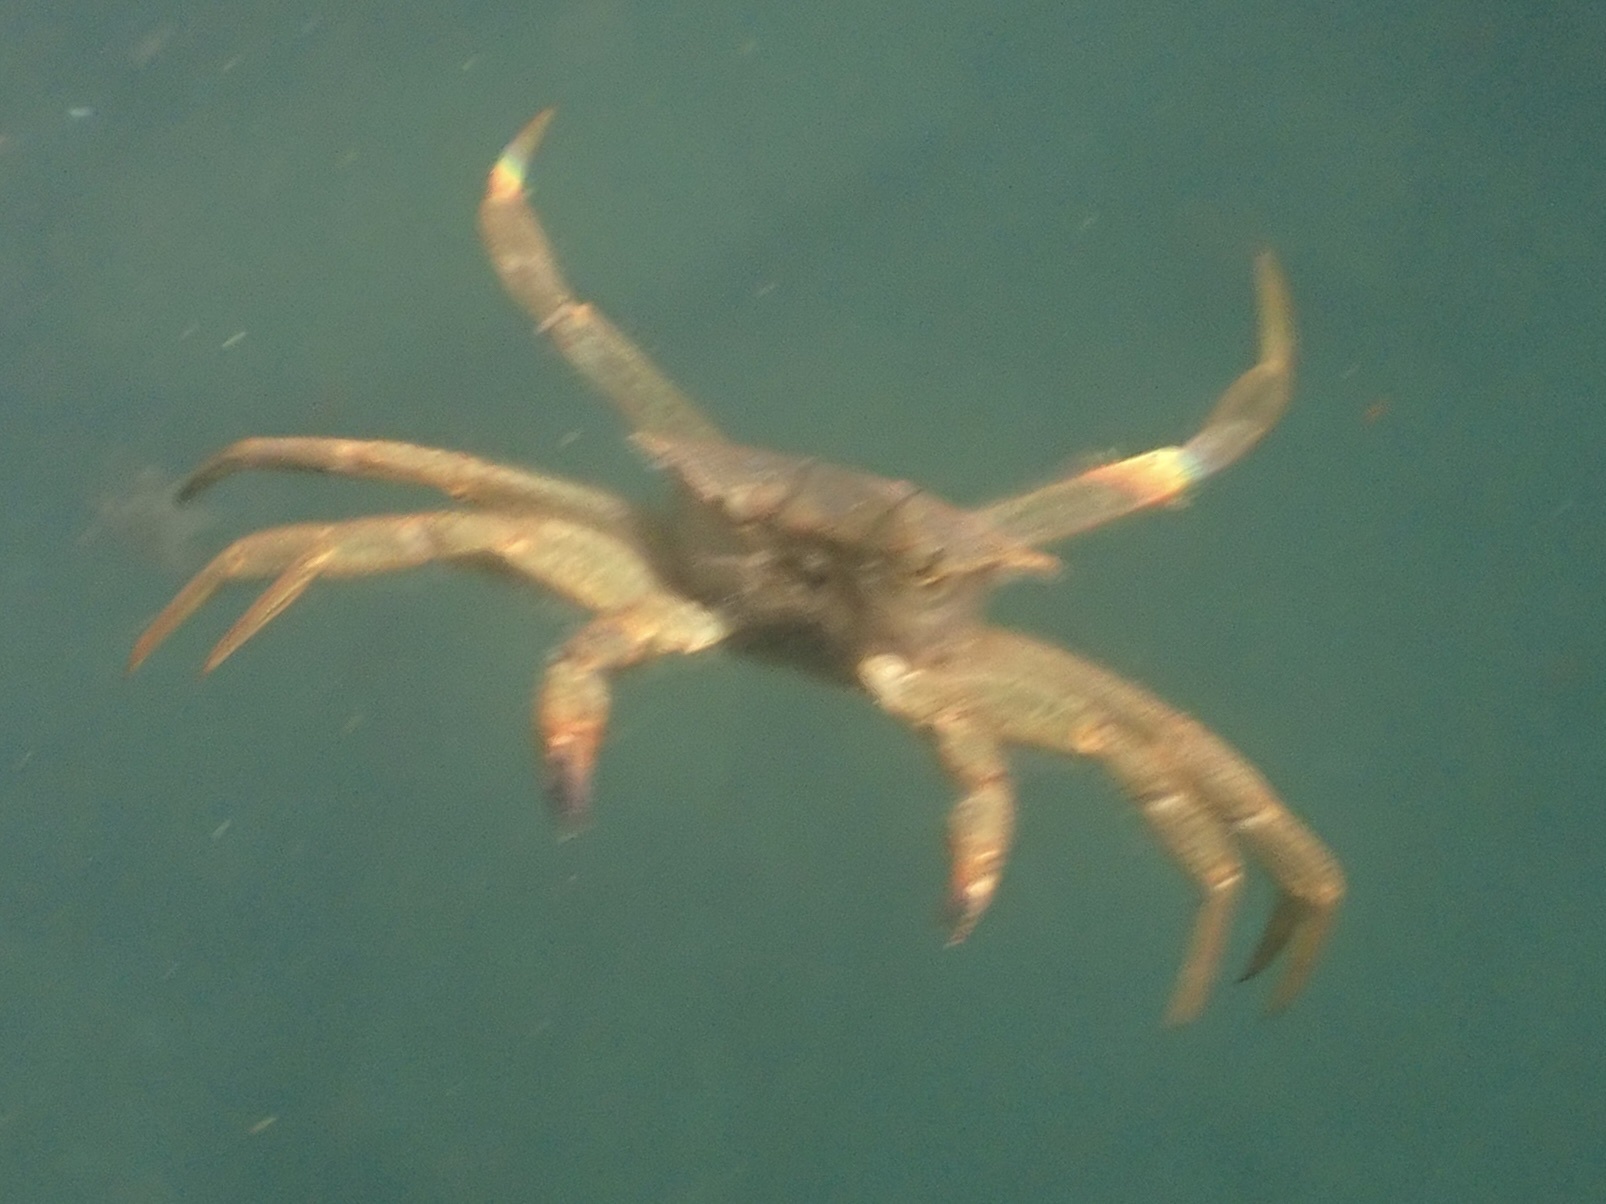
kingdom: Animalia
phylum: Arthropoda
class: Malacostraca
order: Decapoda
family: Cheiragonidae
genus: Telmessus
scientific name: Telmessus cheiragonus
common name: Helmet crab
